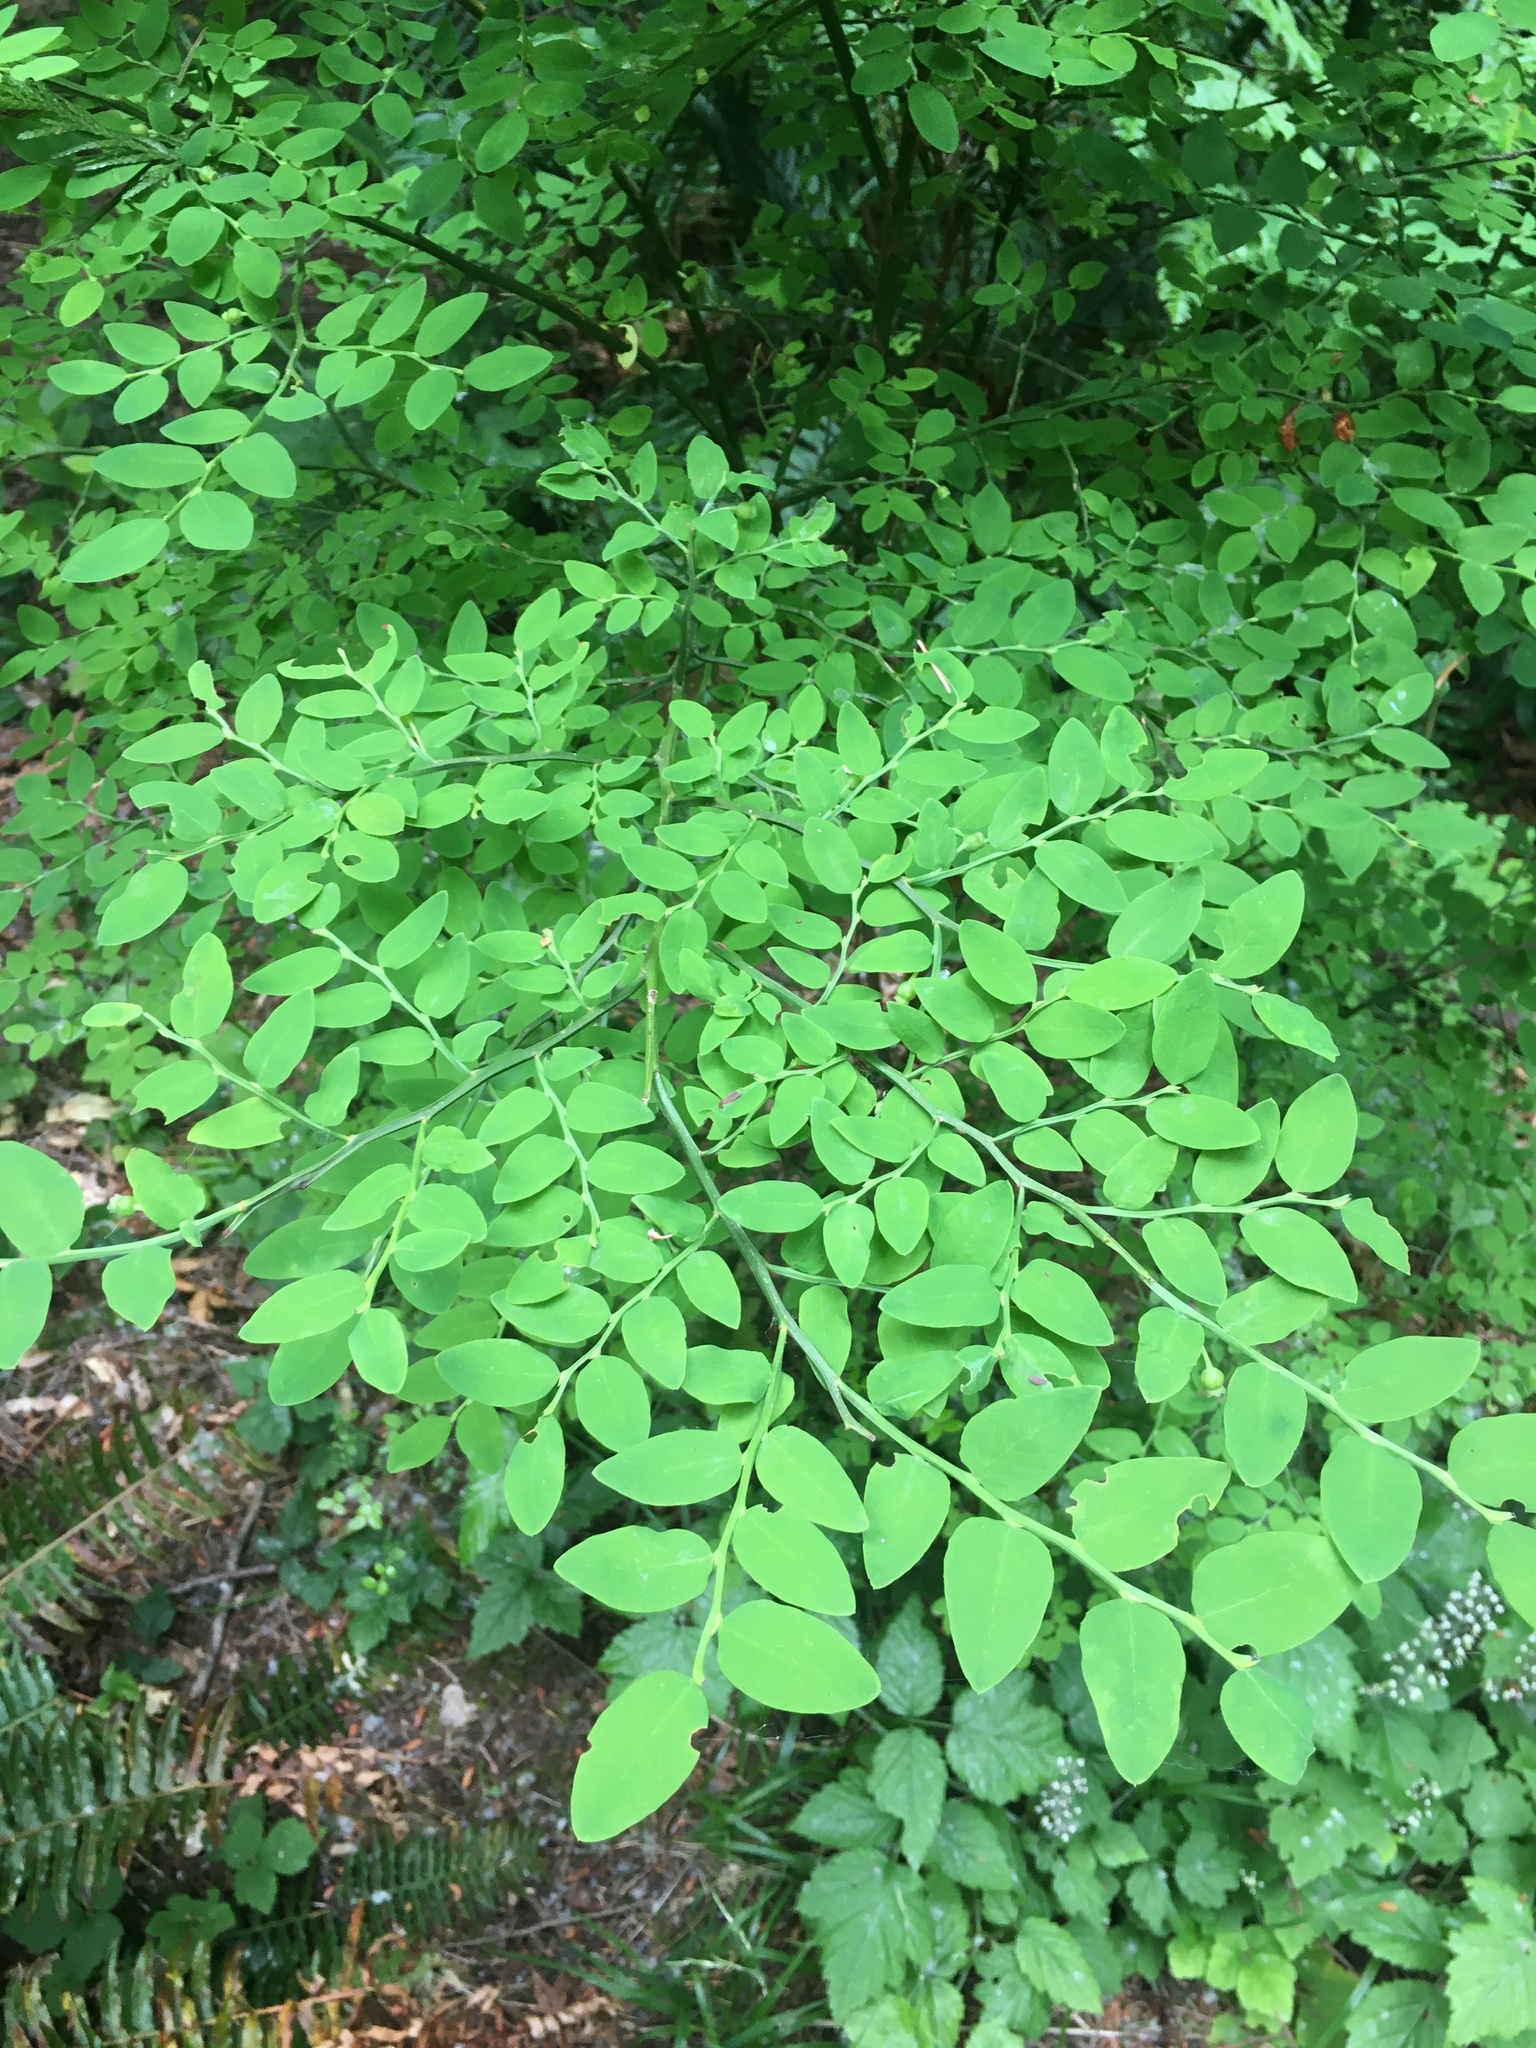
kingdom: Plantae
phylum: Tracheophyta
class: Magnoliopsida
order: Ericales
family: Ericaceae
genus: Vaccinium
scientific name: Vaccinium parvifolium
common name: Red-huckleberry
